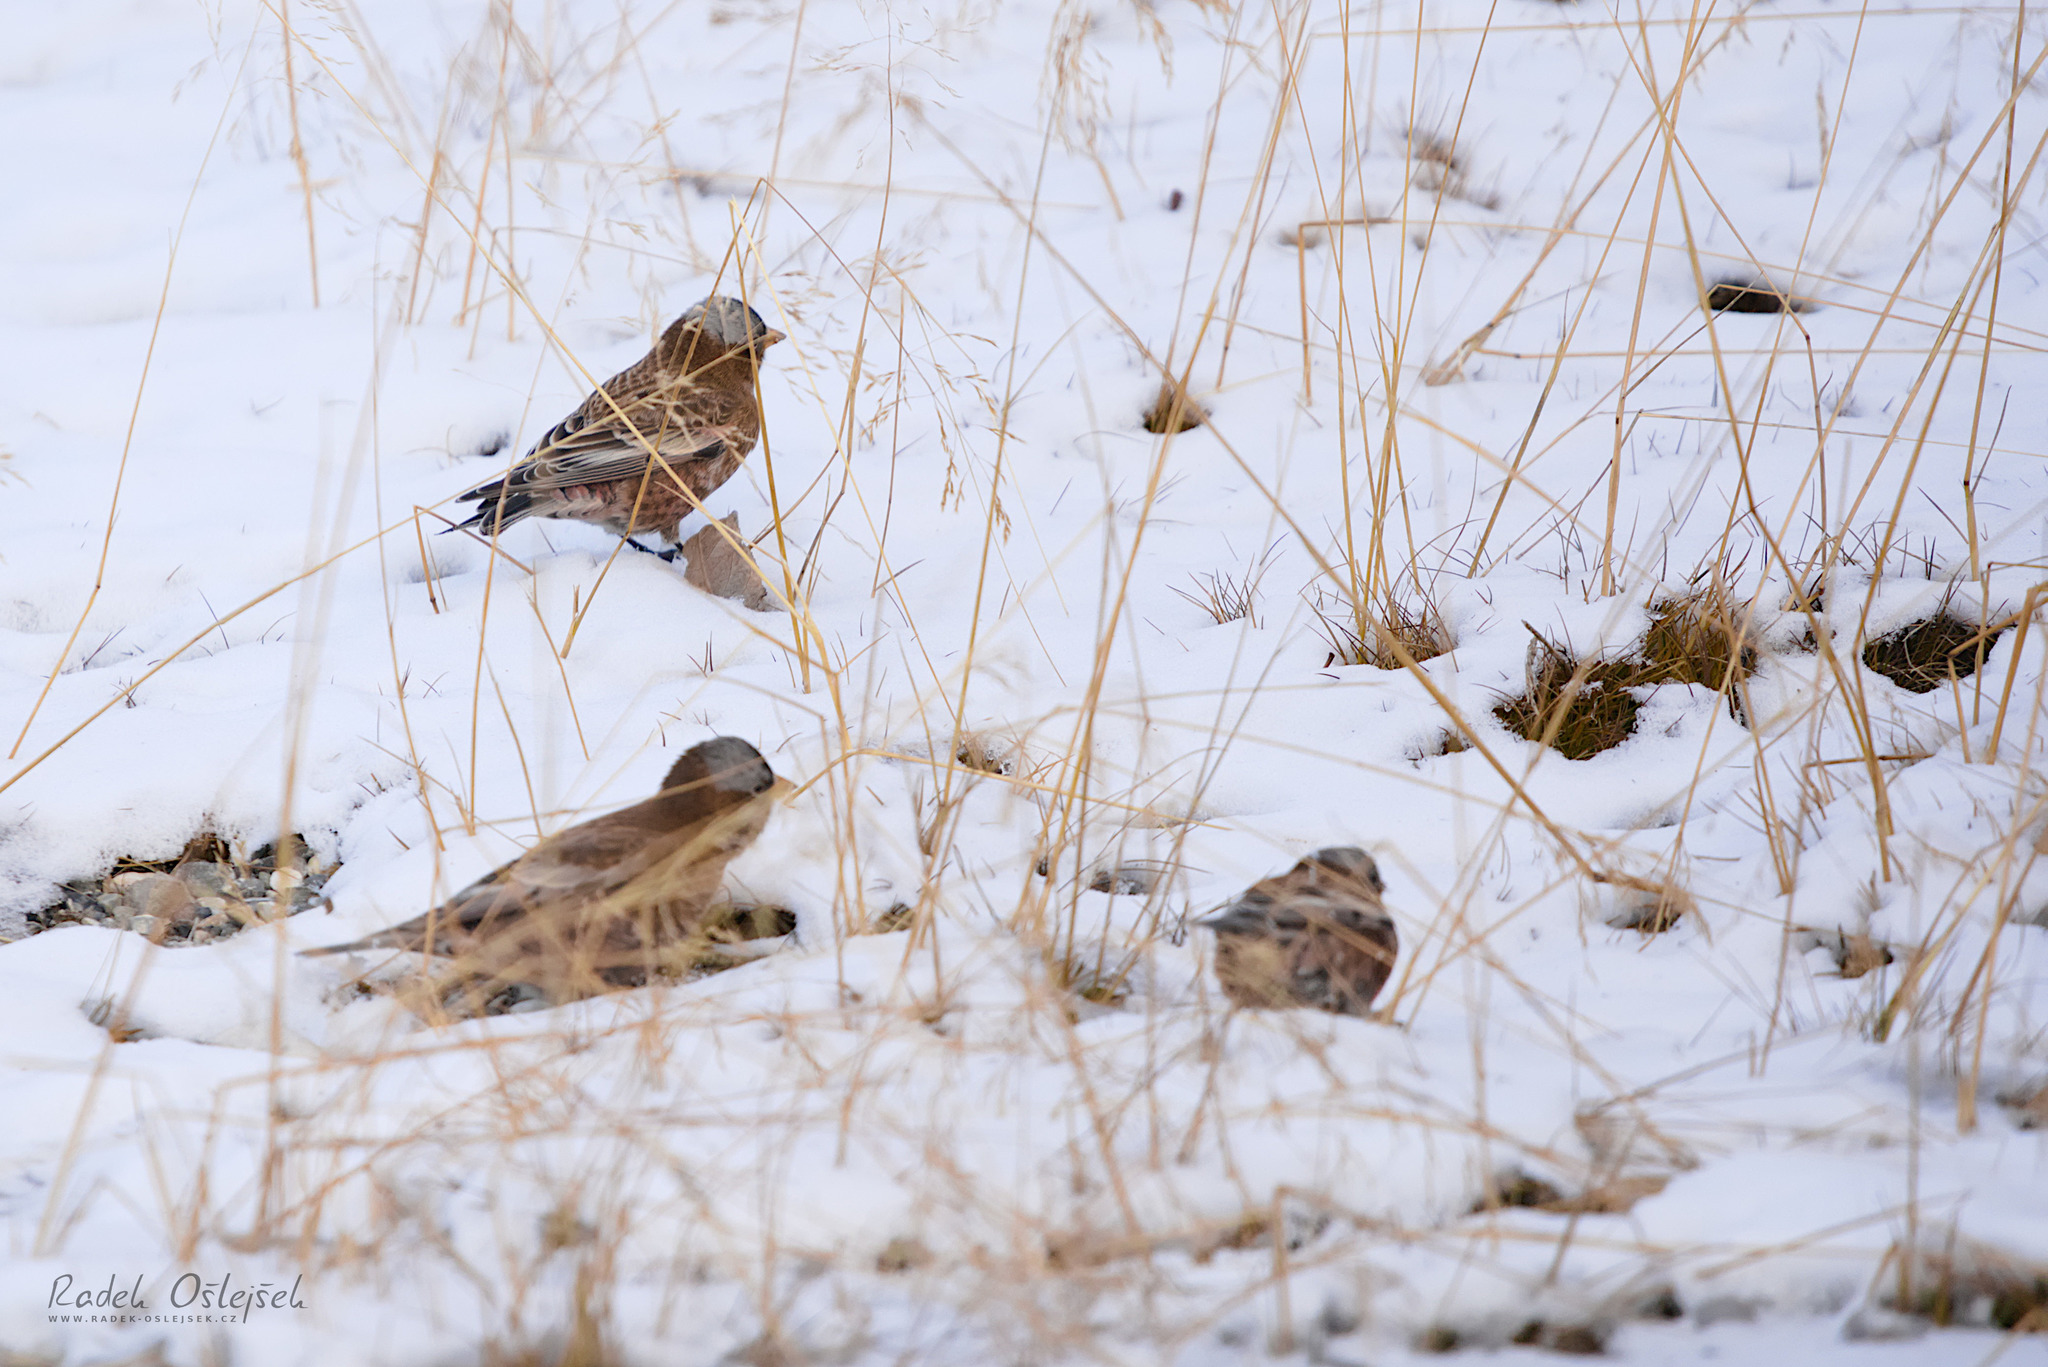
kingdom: Animalia
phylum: Chordata
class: Aves
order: Passeriformes
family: Fringillidae
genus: Leucosticte
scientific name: Leucosticte tephrocotis
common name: Gray-crowned rosy-finch
